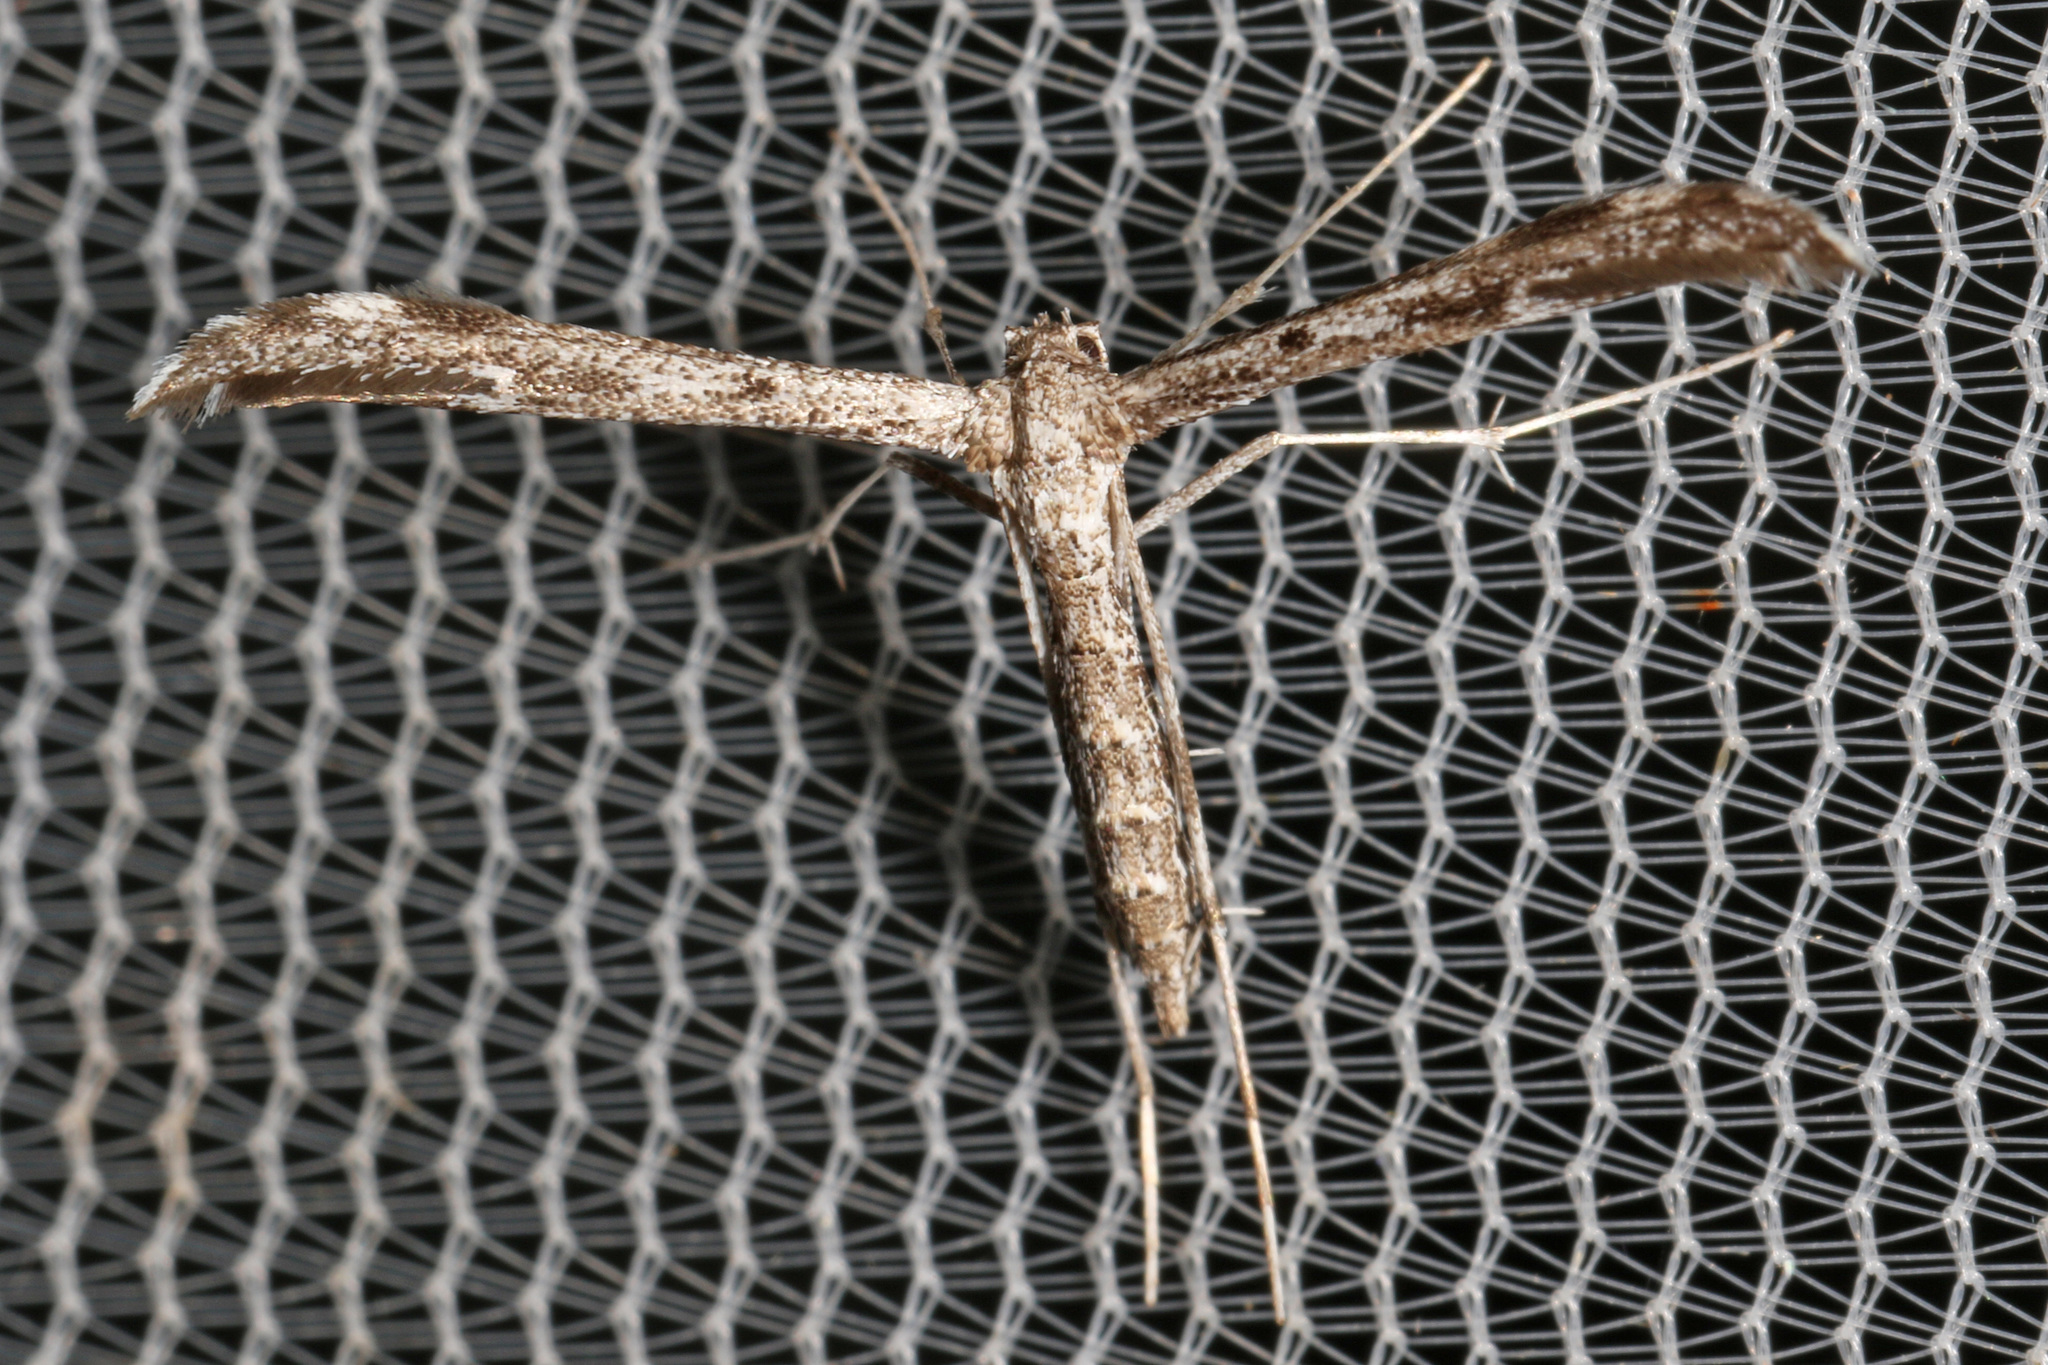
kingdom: Animalia
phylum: Arthropoda
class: Insecta
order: Lepidoptera
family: Pterophoridae
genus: Hellinsia
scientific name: Hellinsia inquinatus
